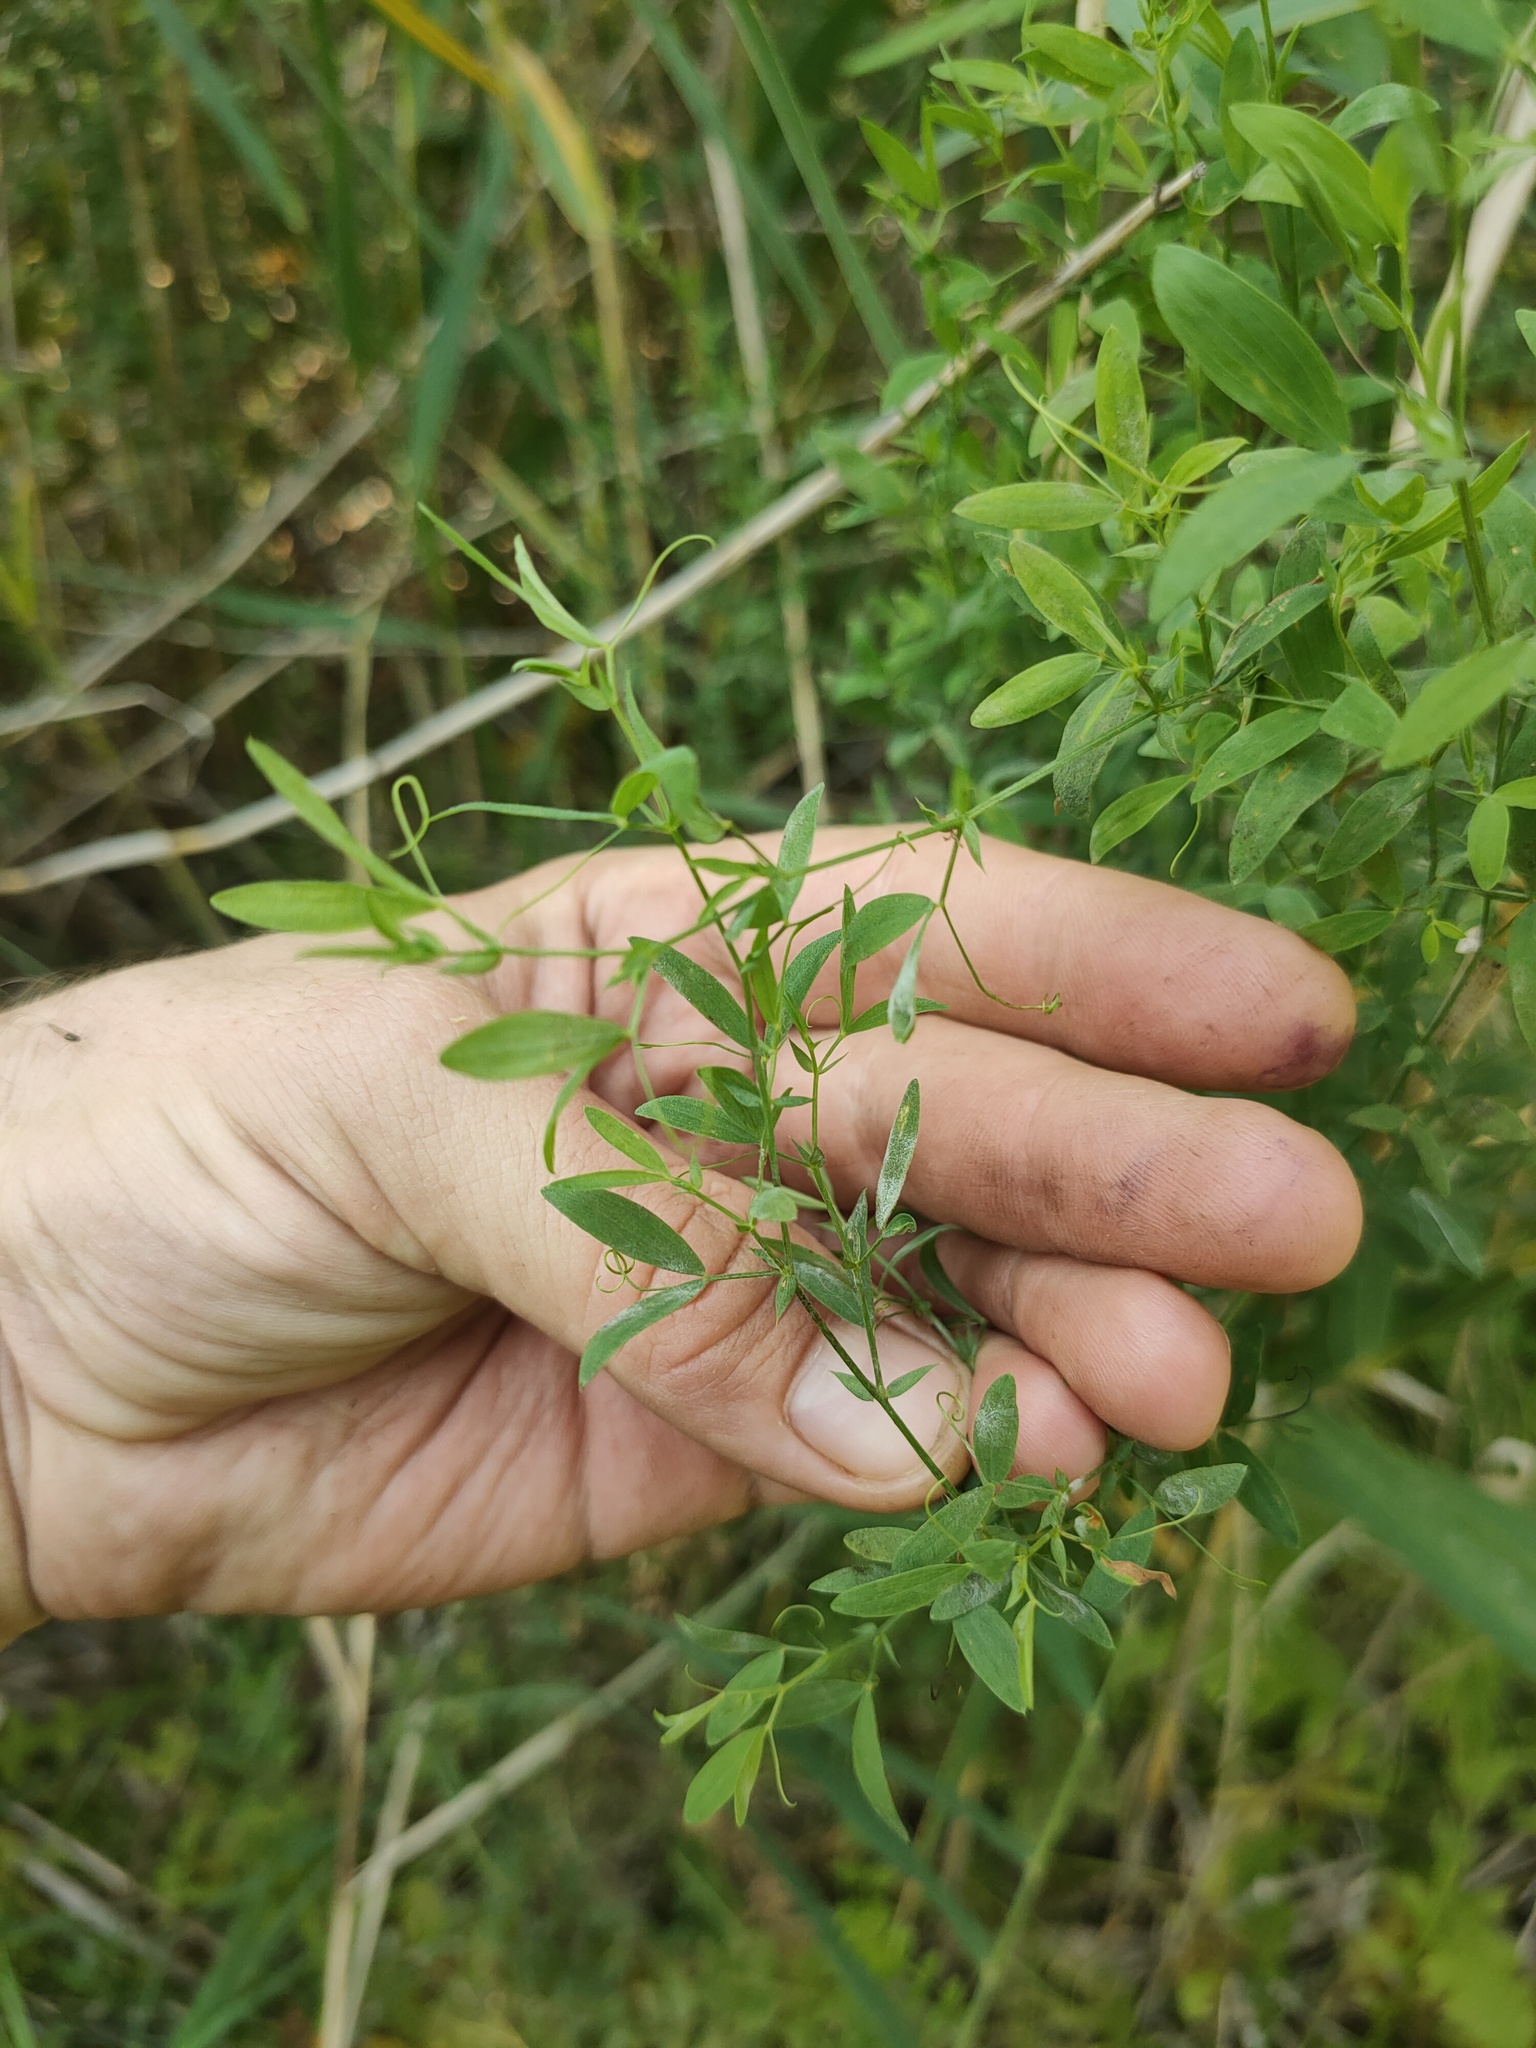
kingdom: Plantae
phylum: Tracheophyta
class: Magnoliopsida
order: Fabales
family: Fabaceae
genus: Lathyrus
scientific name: Lathyrus pratensis
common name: Meadow vetchling
